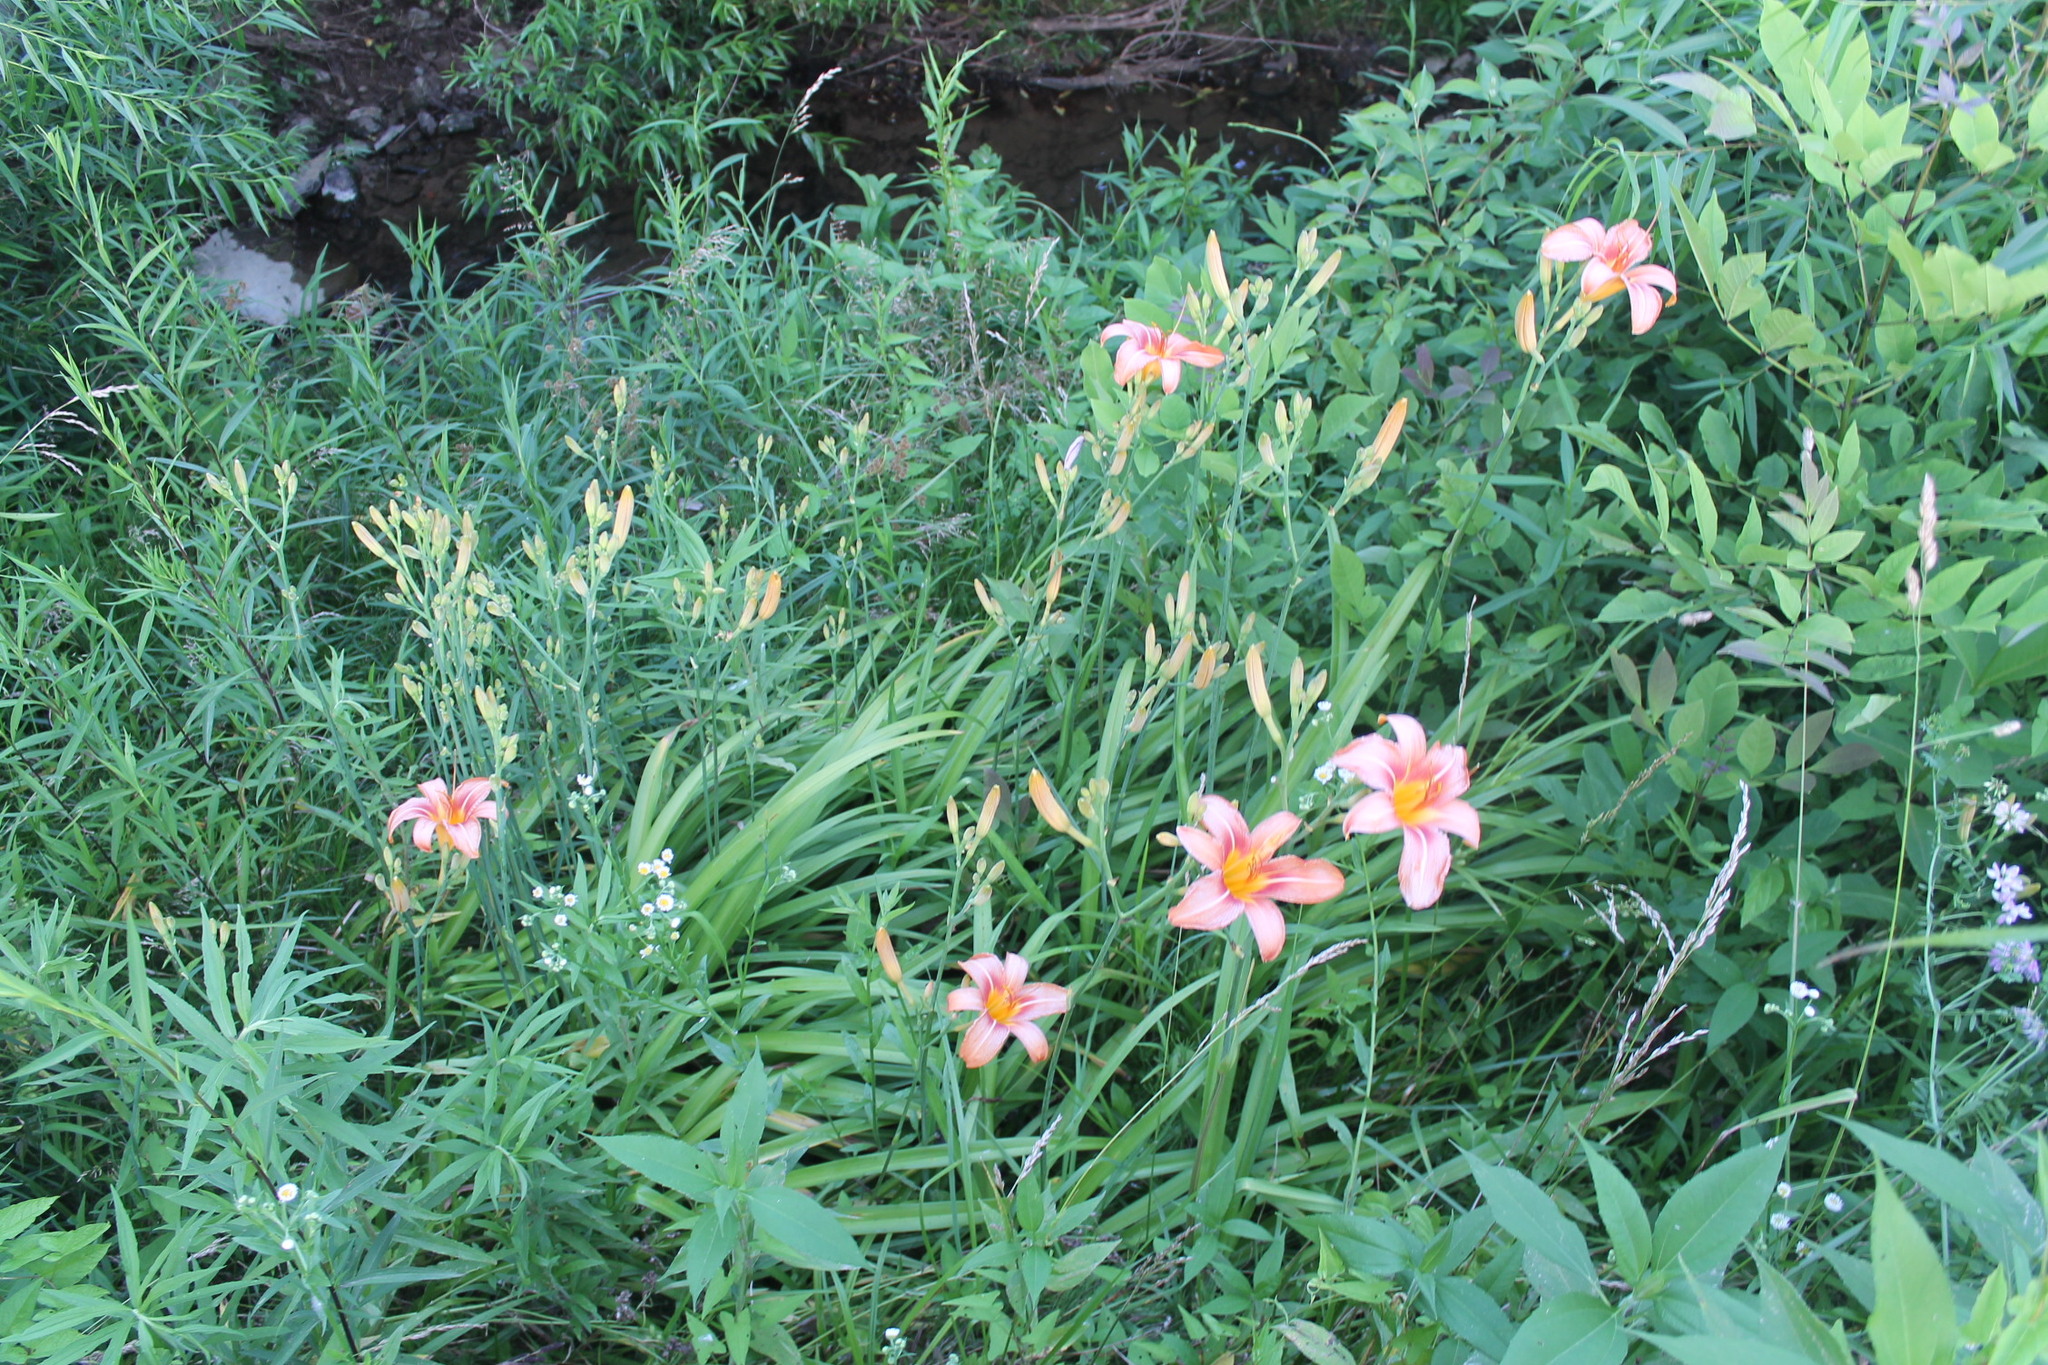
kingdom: Plantae
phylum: Tracheophyta
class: Liliopsida
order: Asparagales
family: Asphodelaceae
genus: Hemerocallis
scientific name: Hemerocallis fulva
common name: Orange day-lily
